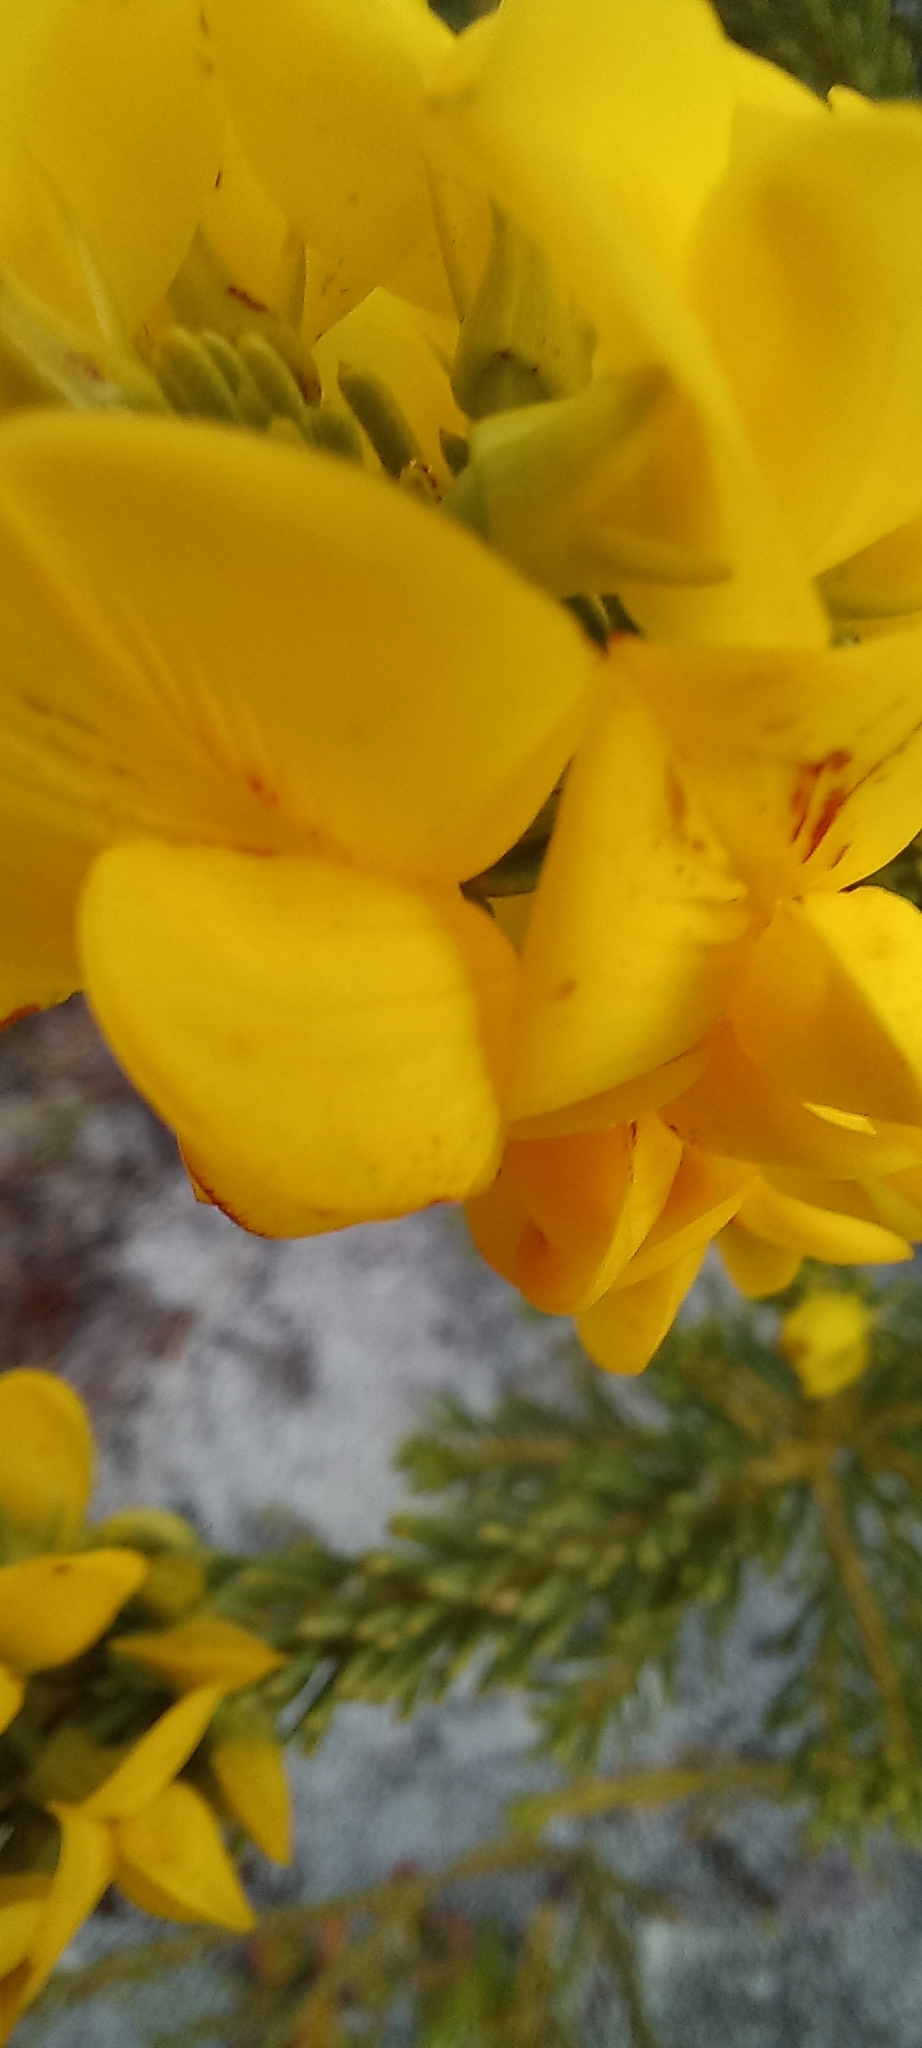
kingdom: Plantae
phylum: Tracheophyta
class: Magnoliopsida
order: Fabales
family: Fabaceae
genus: Cyclopia
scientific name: Cyclopia genistoides
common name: Honeybush tea
